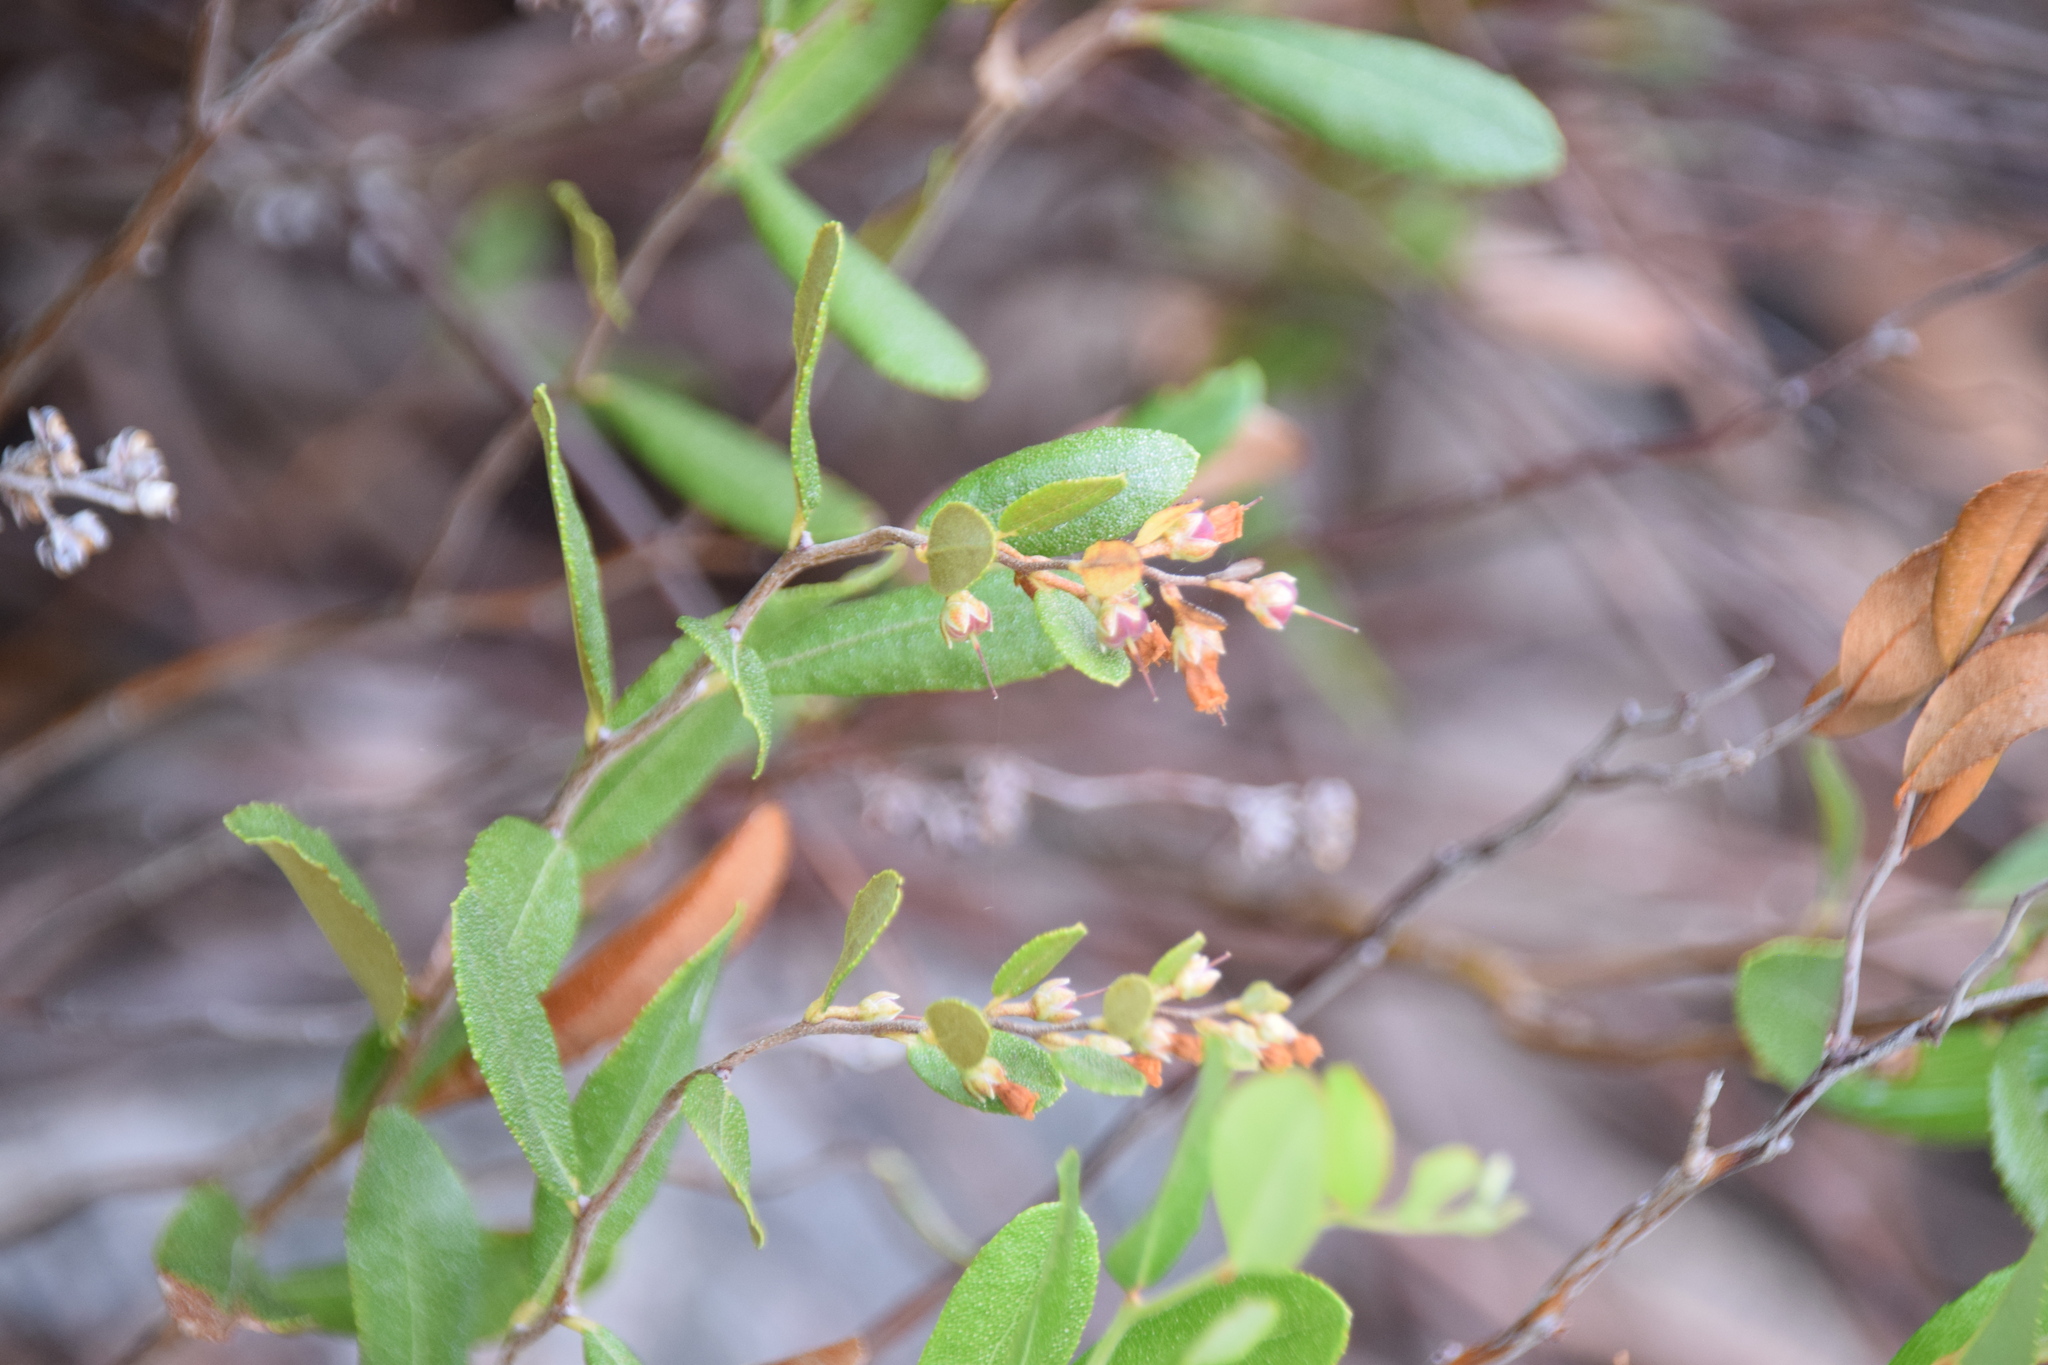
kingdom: Plantae
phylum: Tracheophyta
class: Magnoliopsida
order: Ericales
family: Ericaceae
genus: Chamaedaphne
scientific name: Chamaedaphne calyculata
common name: Leatherleaf
